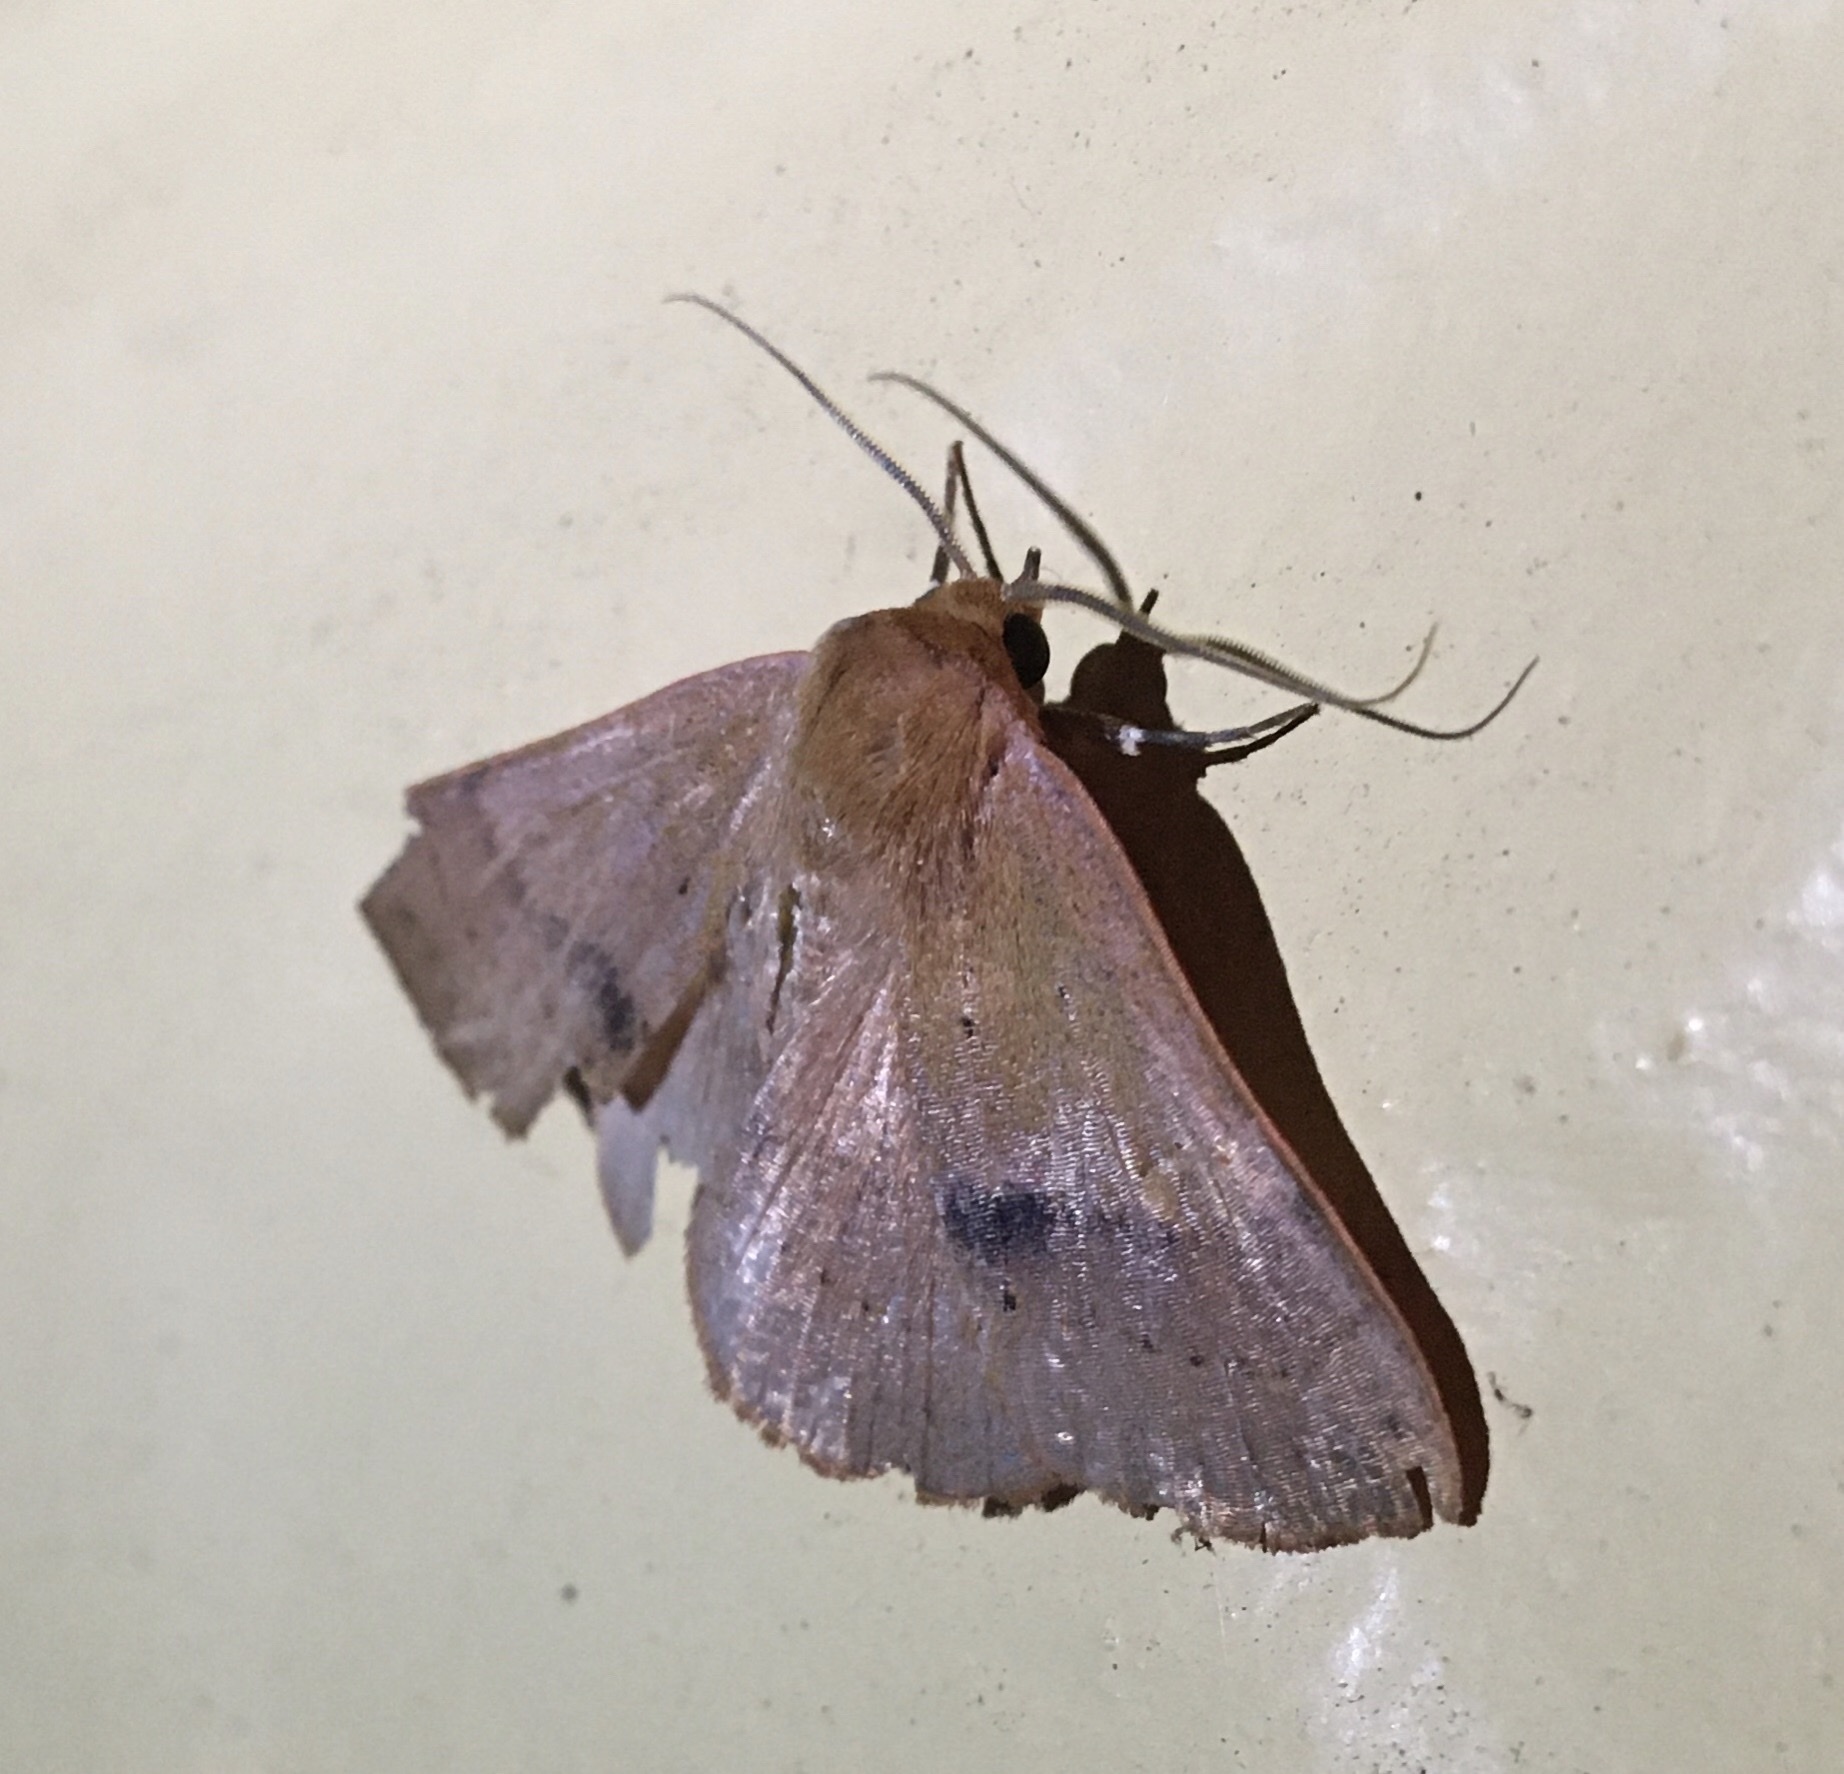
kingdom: Animalia
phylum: Arthropoda
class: Insecta
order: Lepidoptera
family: Erebidae
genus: Panopoda
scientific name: Panopoda repanda
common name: Orange panopoda
